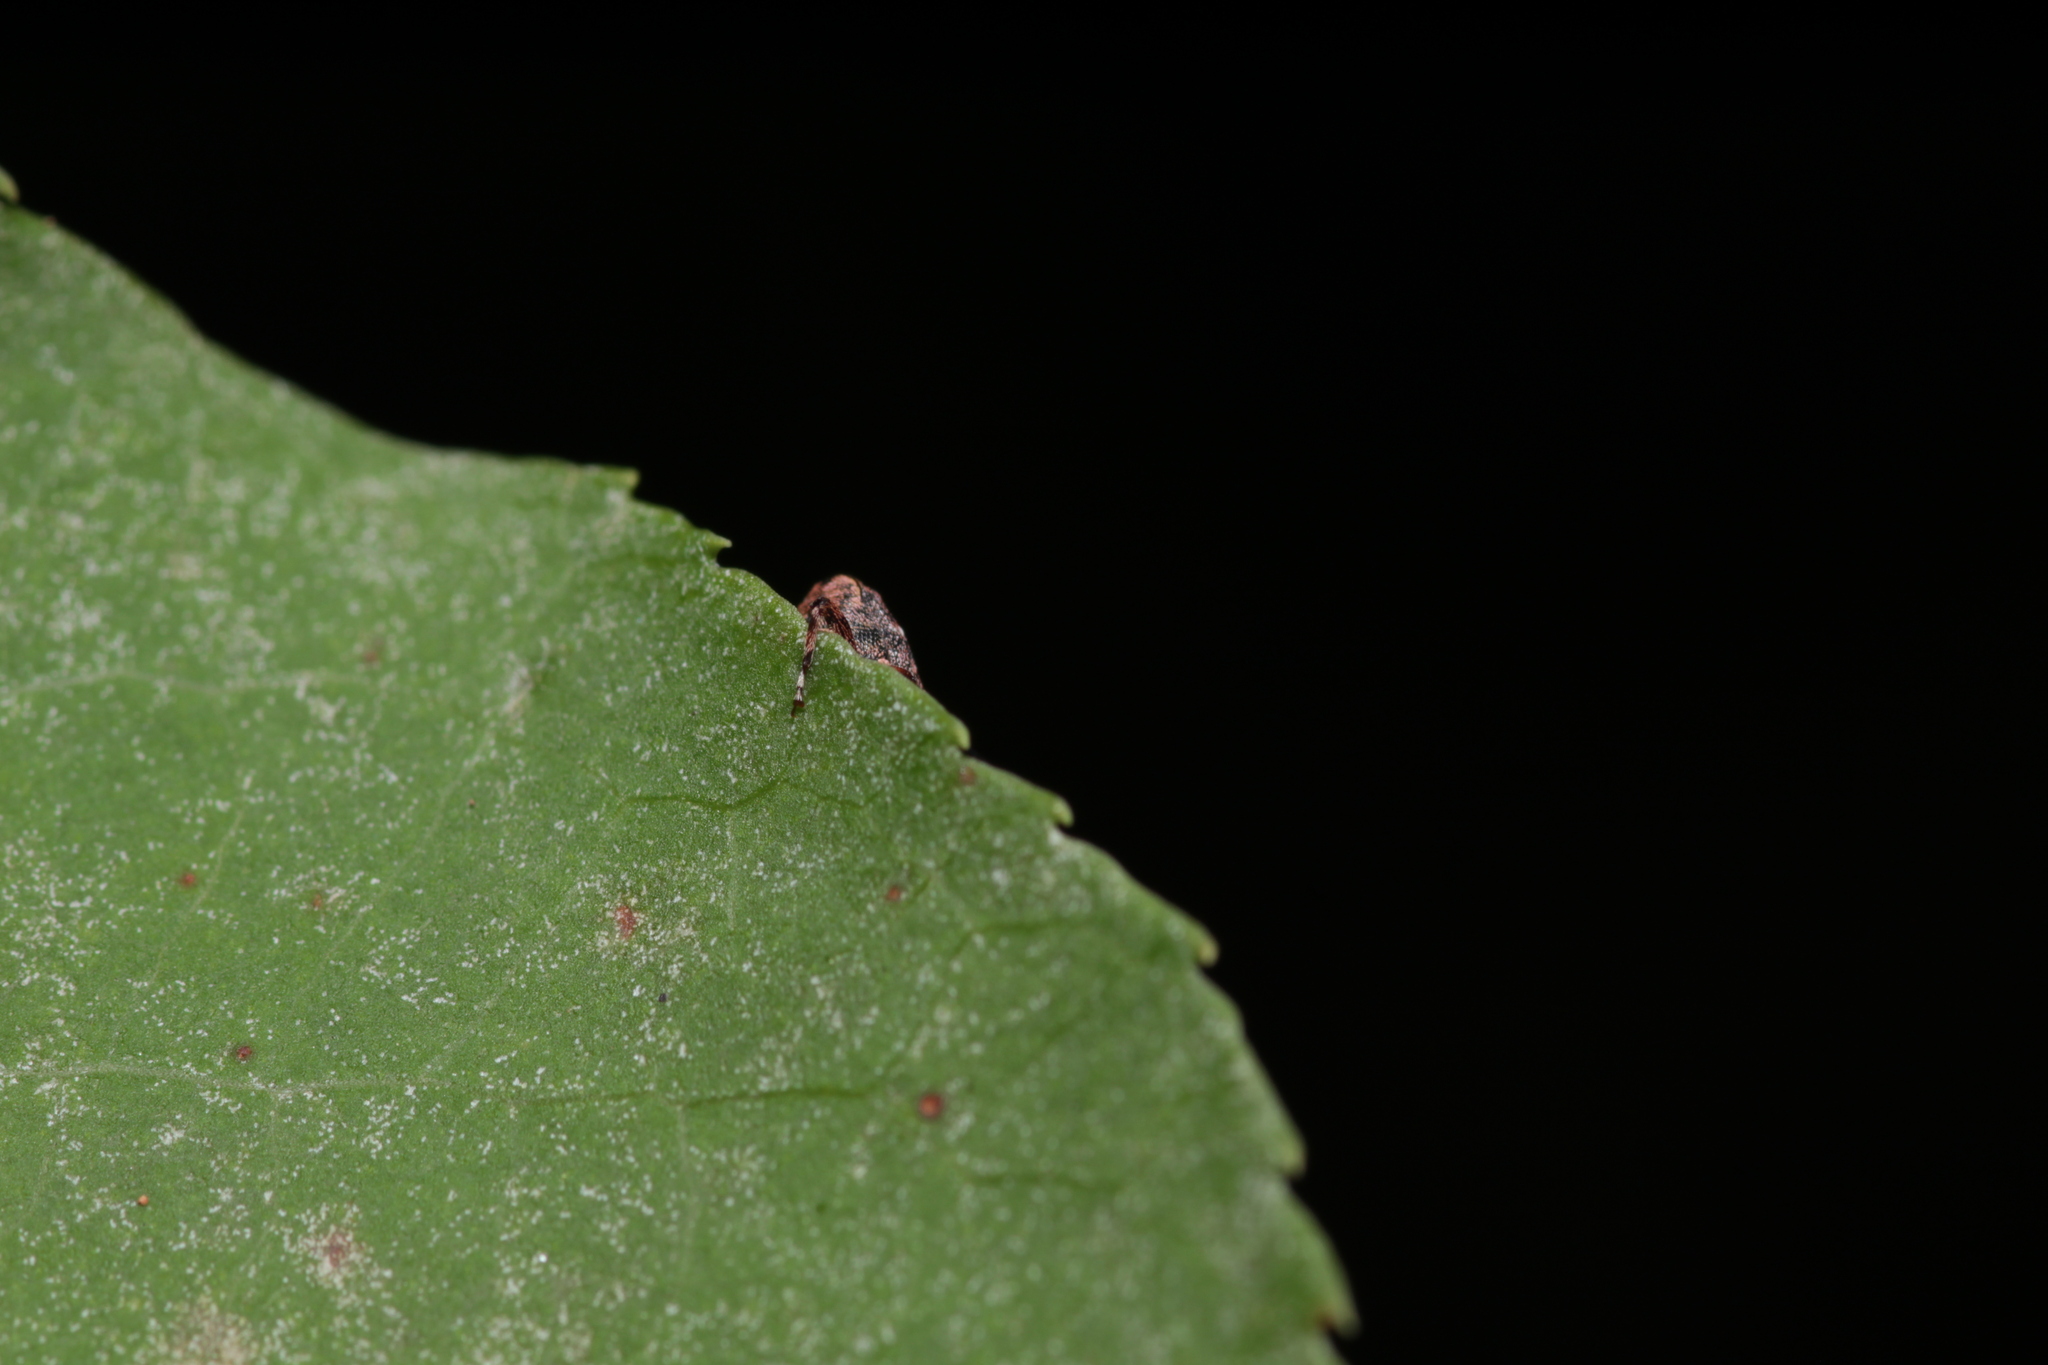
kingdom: Animalia
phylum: Arthropoda
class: Insecta
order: Coleoptera
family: Curculionidae
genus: Lechriops
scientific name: Lechriops oculatus
